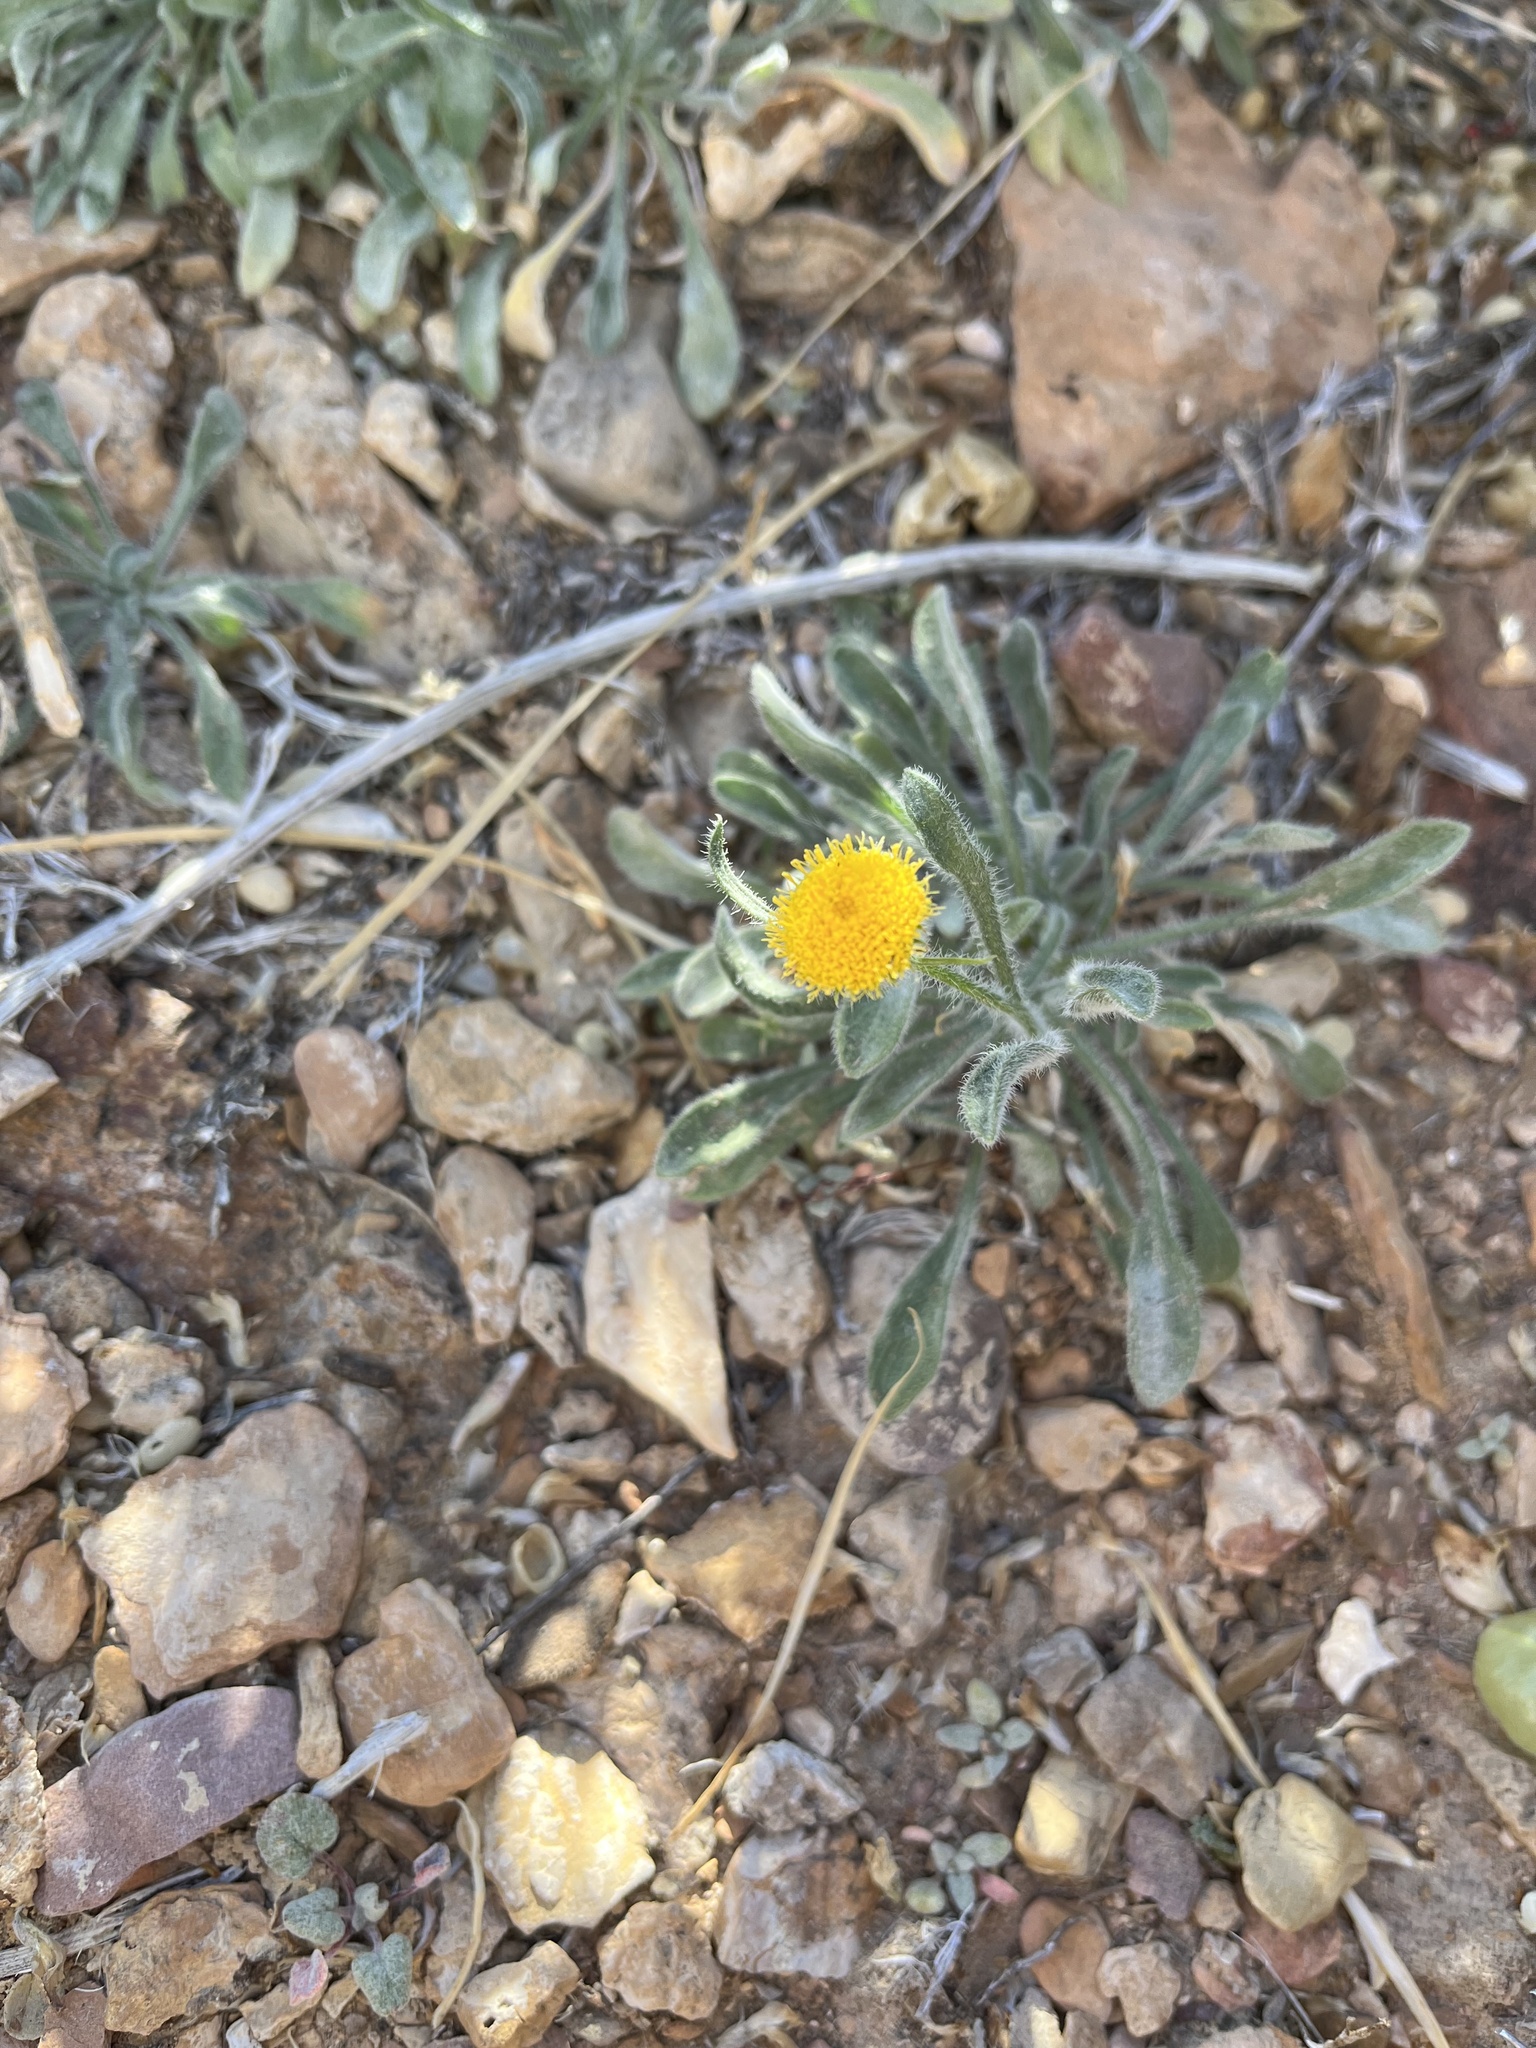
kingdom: Plantae
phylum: Tracheophyta
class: Magnoliopsida
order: Asterales
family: Asteraceae
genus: Erigeron
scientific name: Erigeron aphanactis
